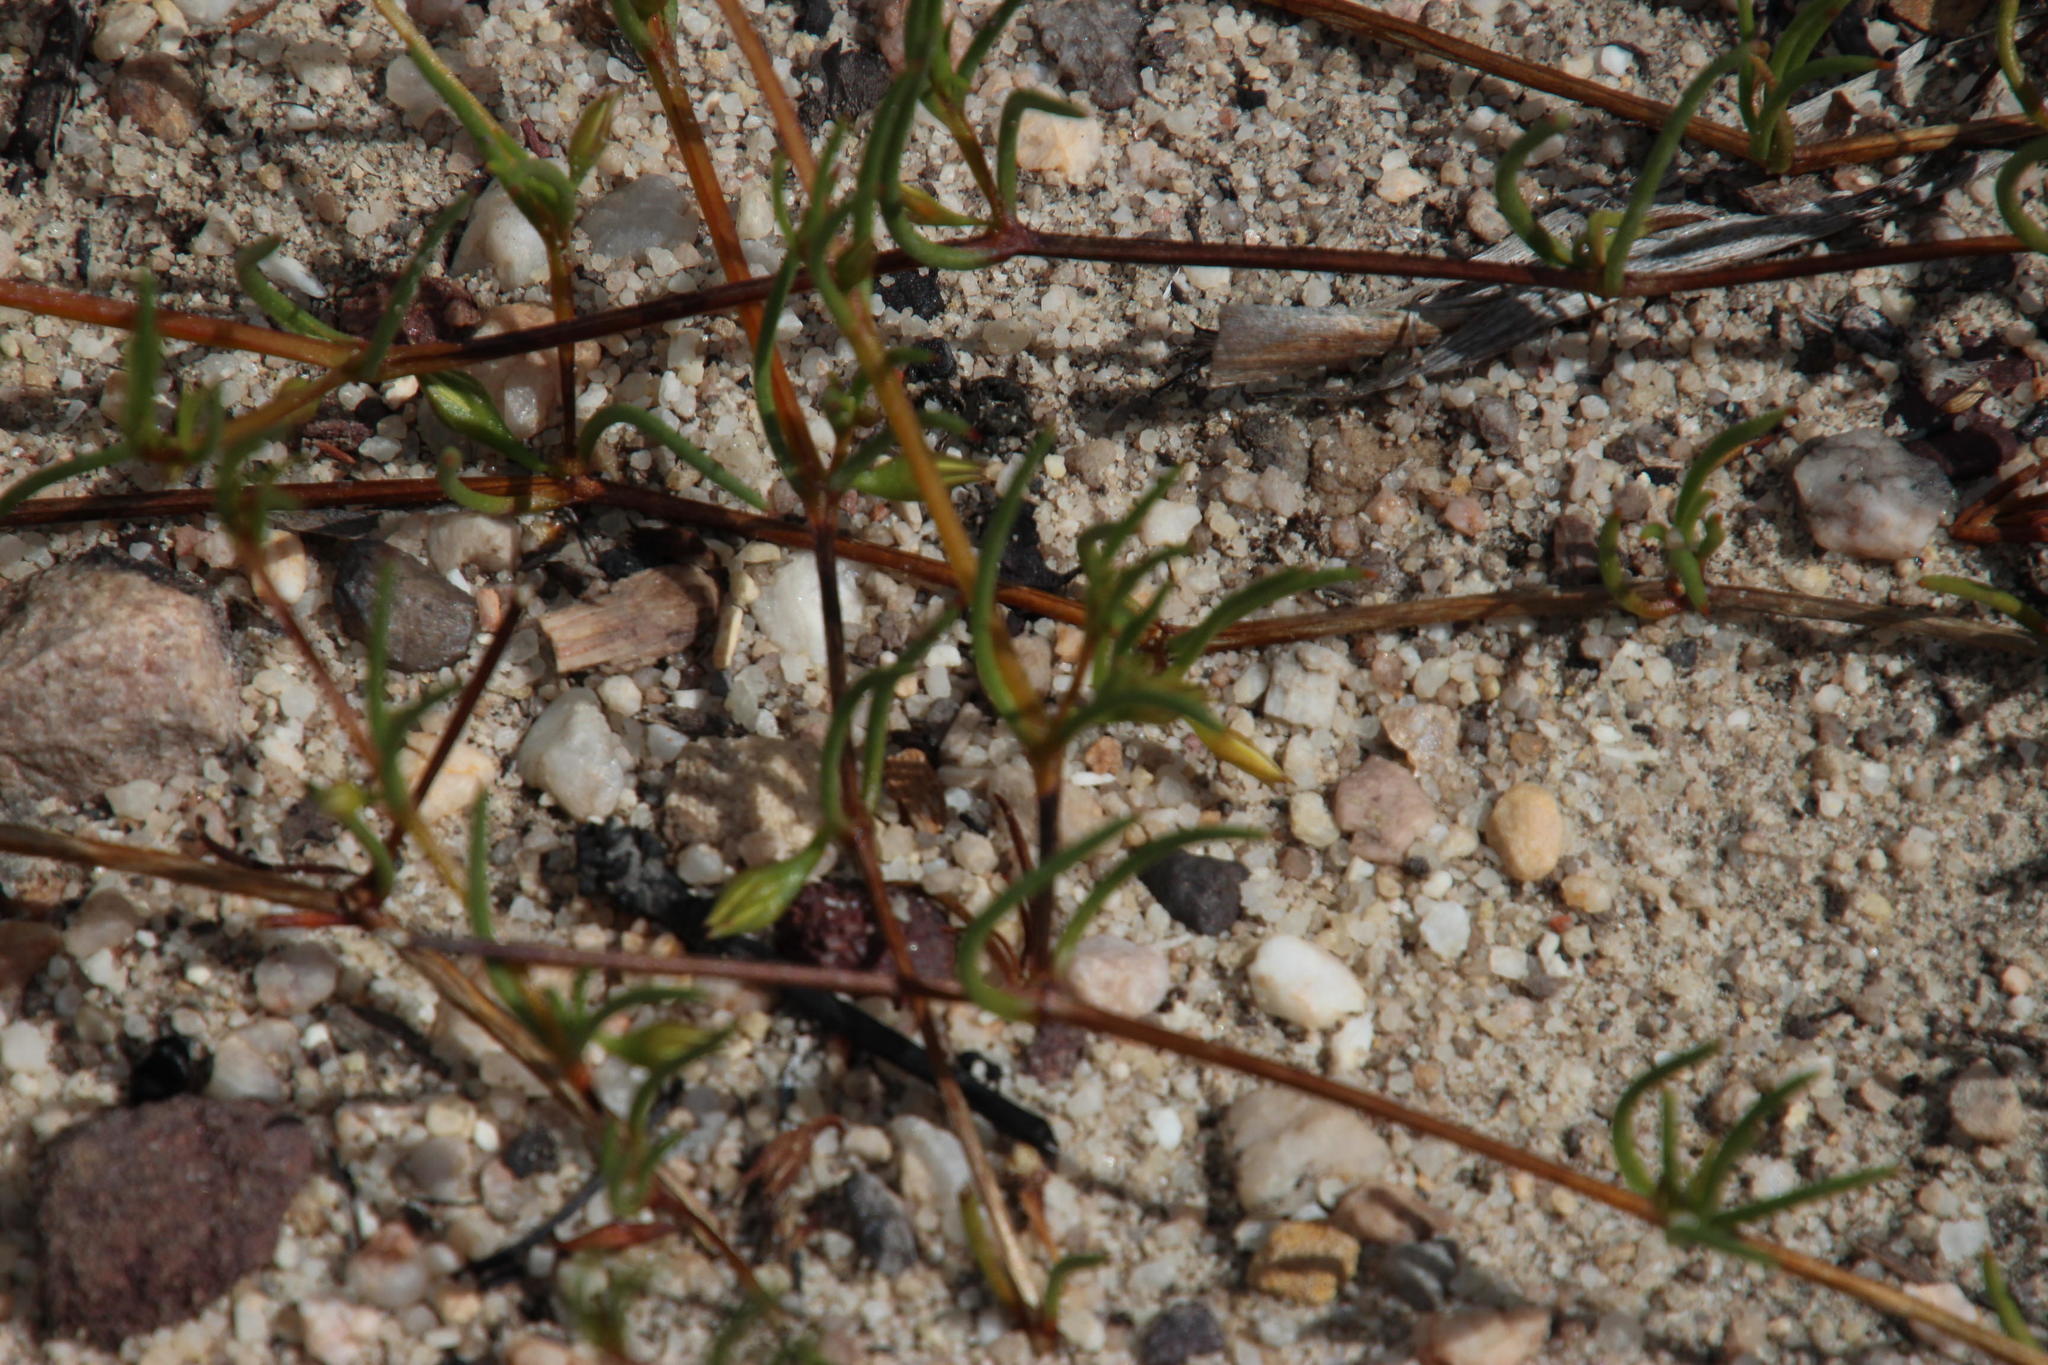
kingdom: Plantae
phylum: Tracheophyta
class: Magnoliopsida
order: Caryophyllales
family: Aizoaceae
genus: Acrosanthes
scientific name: Acrosanthes teretifolia
